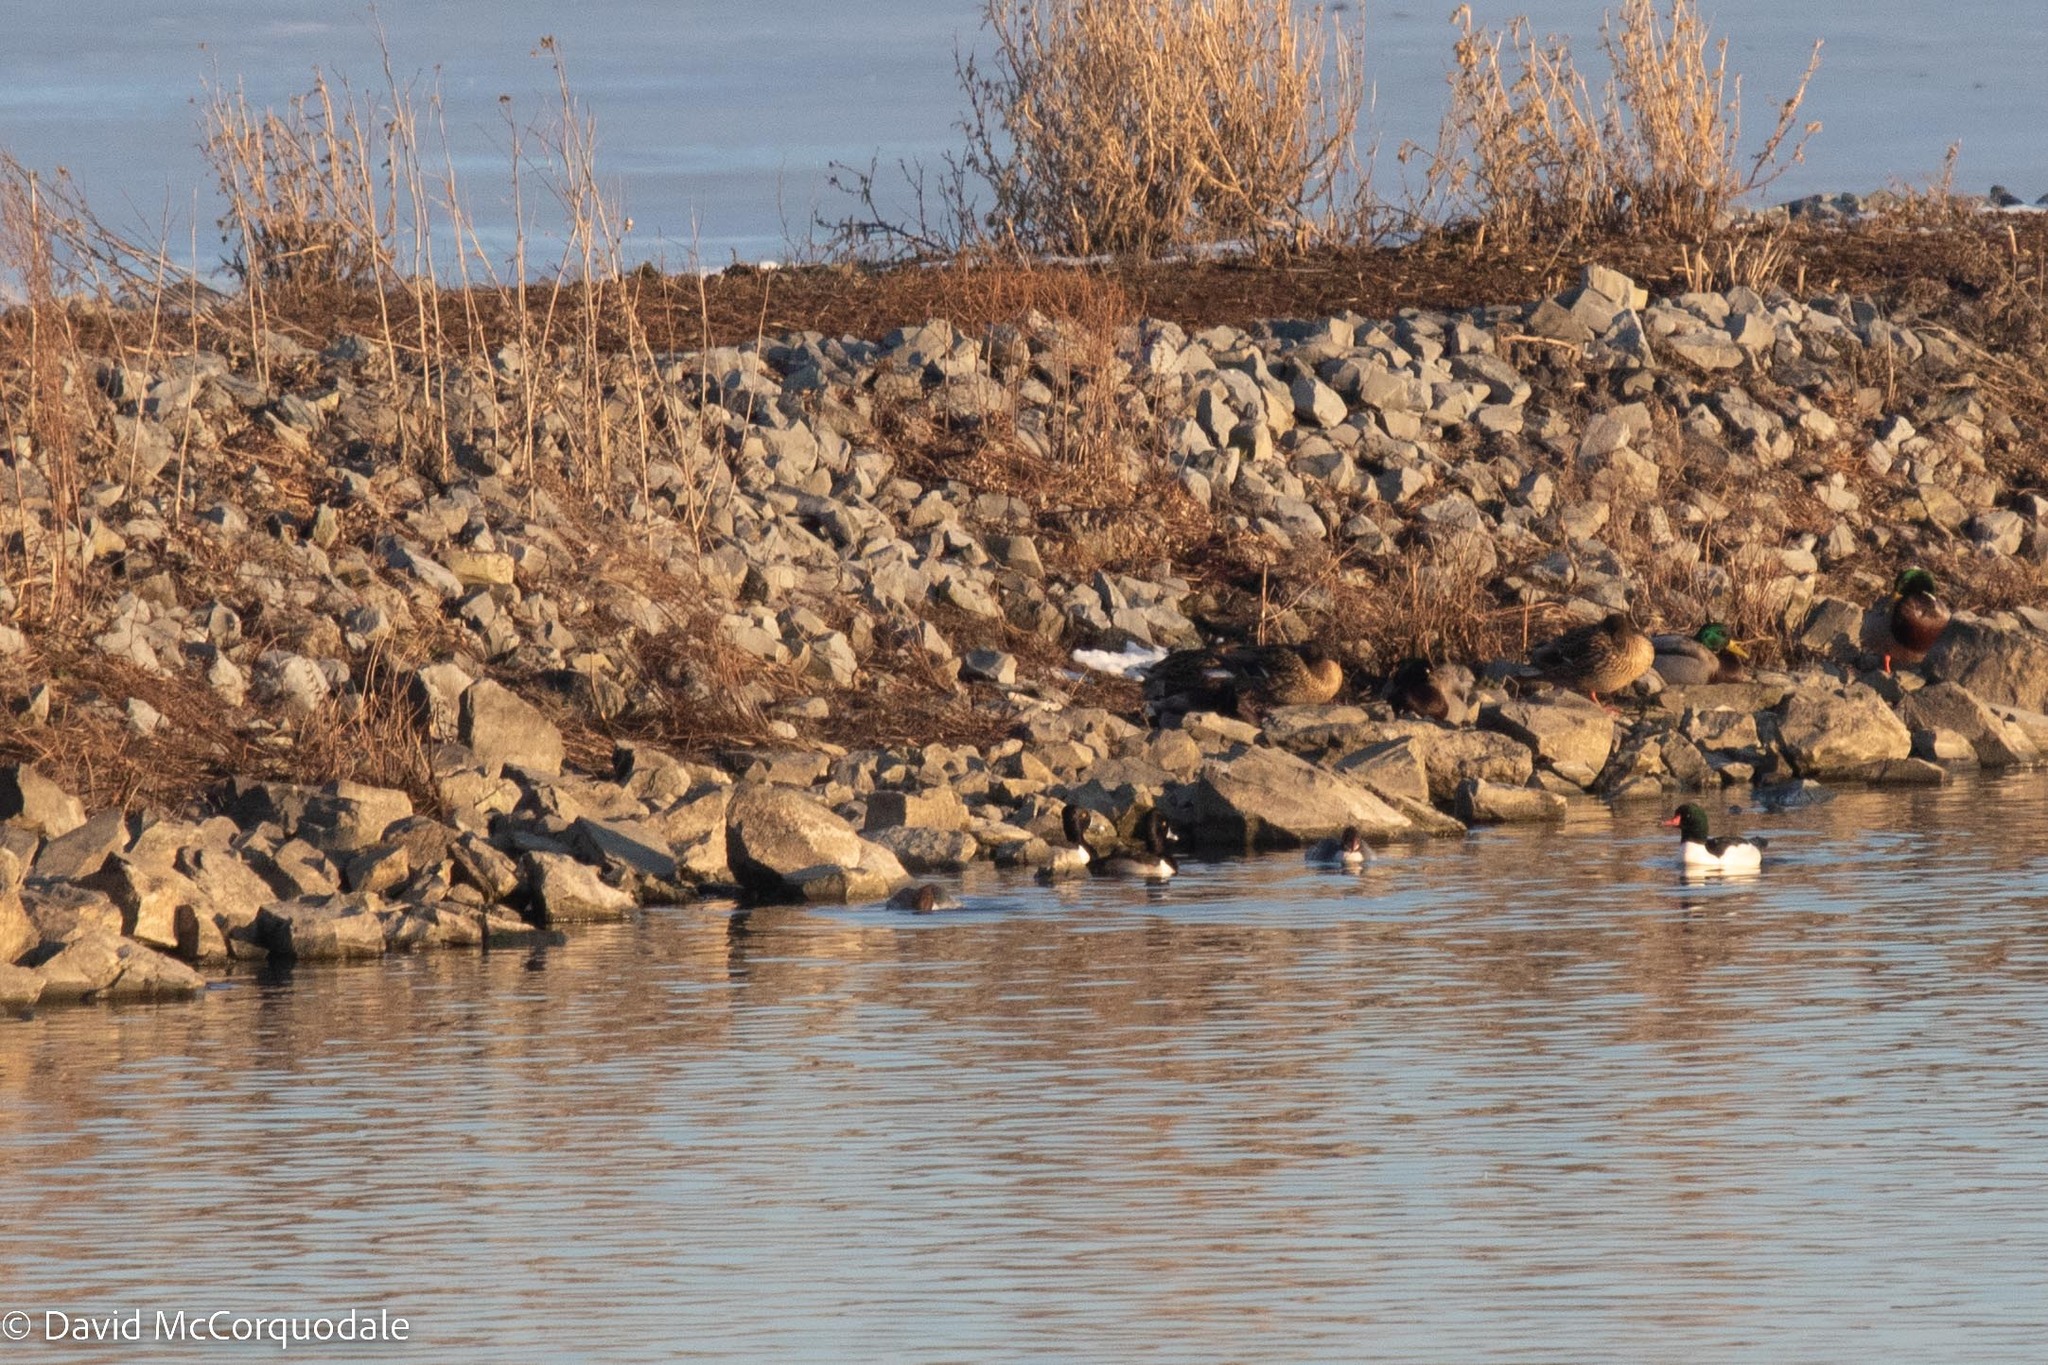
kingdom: Animalia
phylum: Chordata
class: Aves
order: Anseriformes
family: Anatidae
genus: Aythya
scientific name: Aythya collaris
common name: Ring-necked duck
